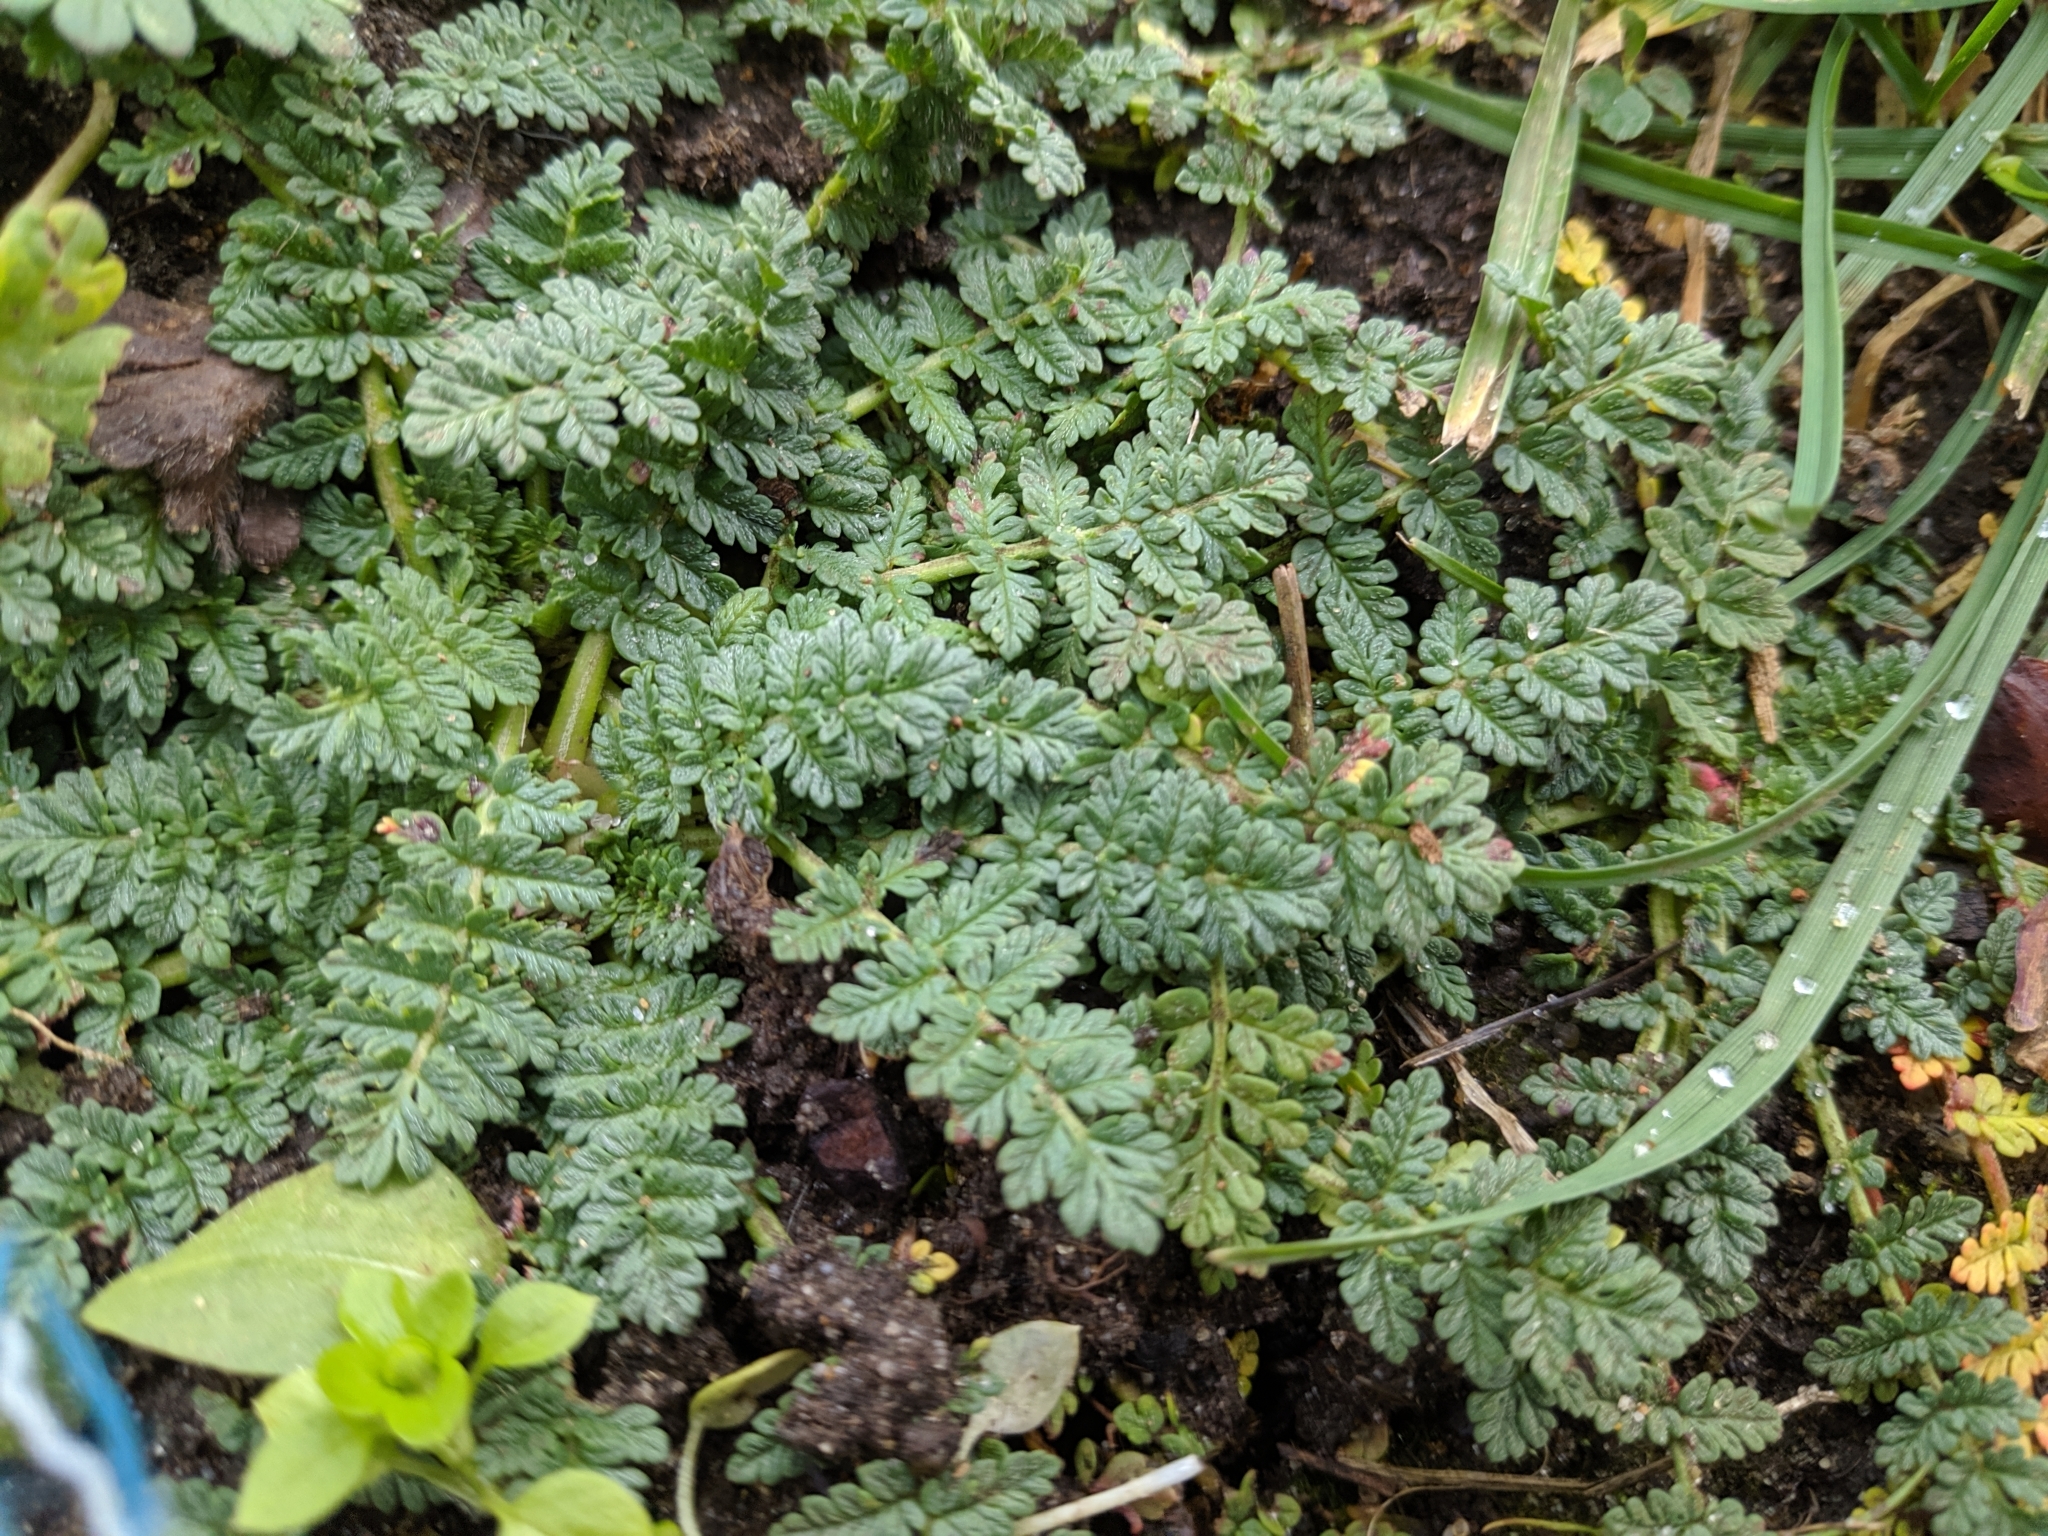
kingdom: Plantae
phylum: Tracheophyta
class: Magnoliopsida
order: Geraniales
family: Geraniaceae
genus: Erodium
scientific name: Erodium cicutarium
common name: Common stork's-bill
